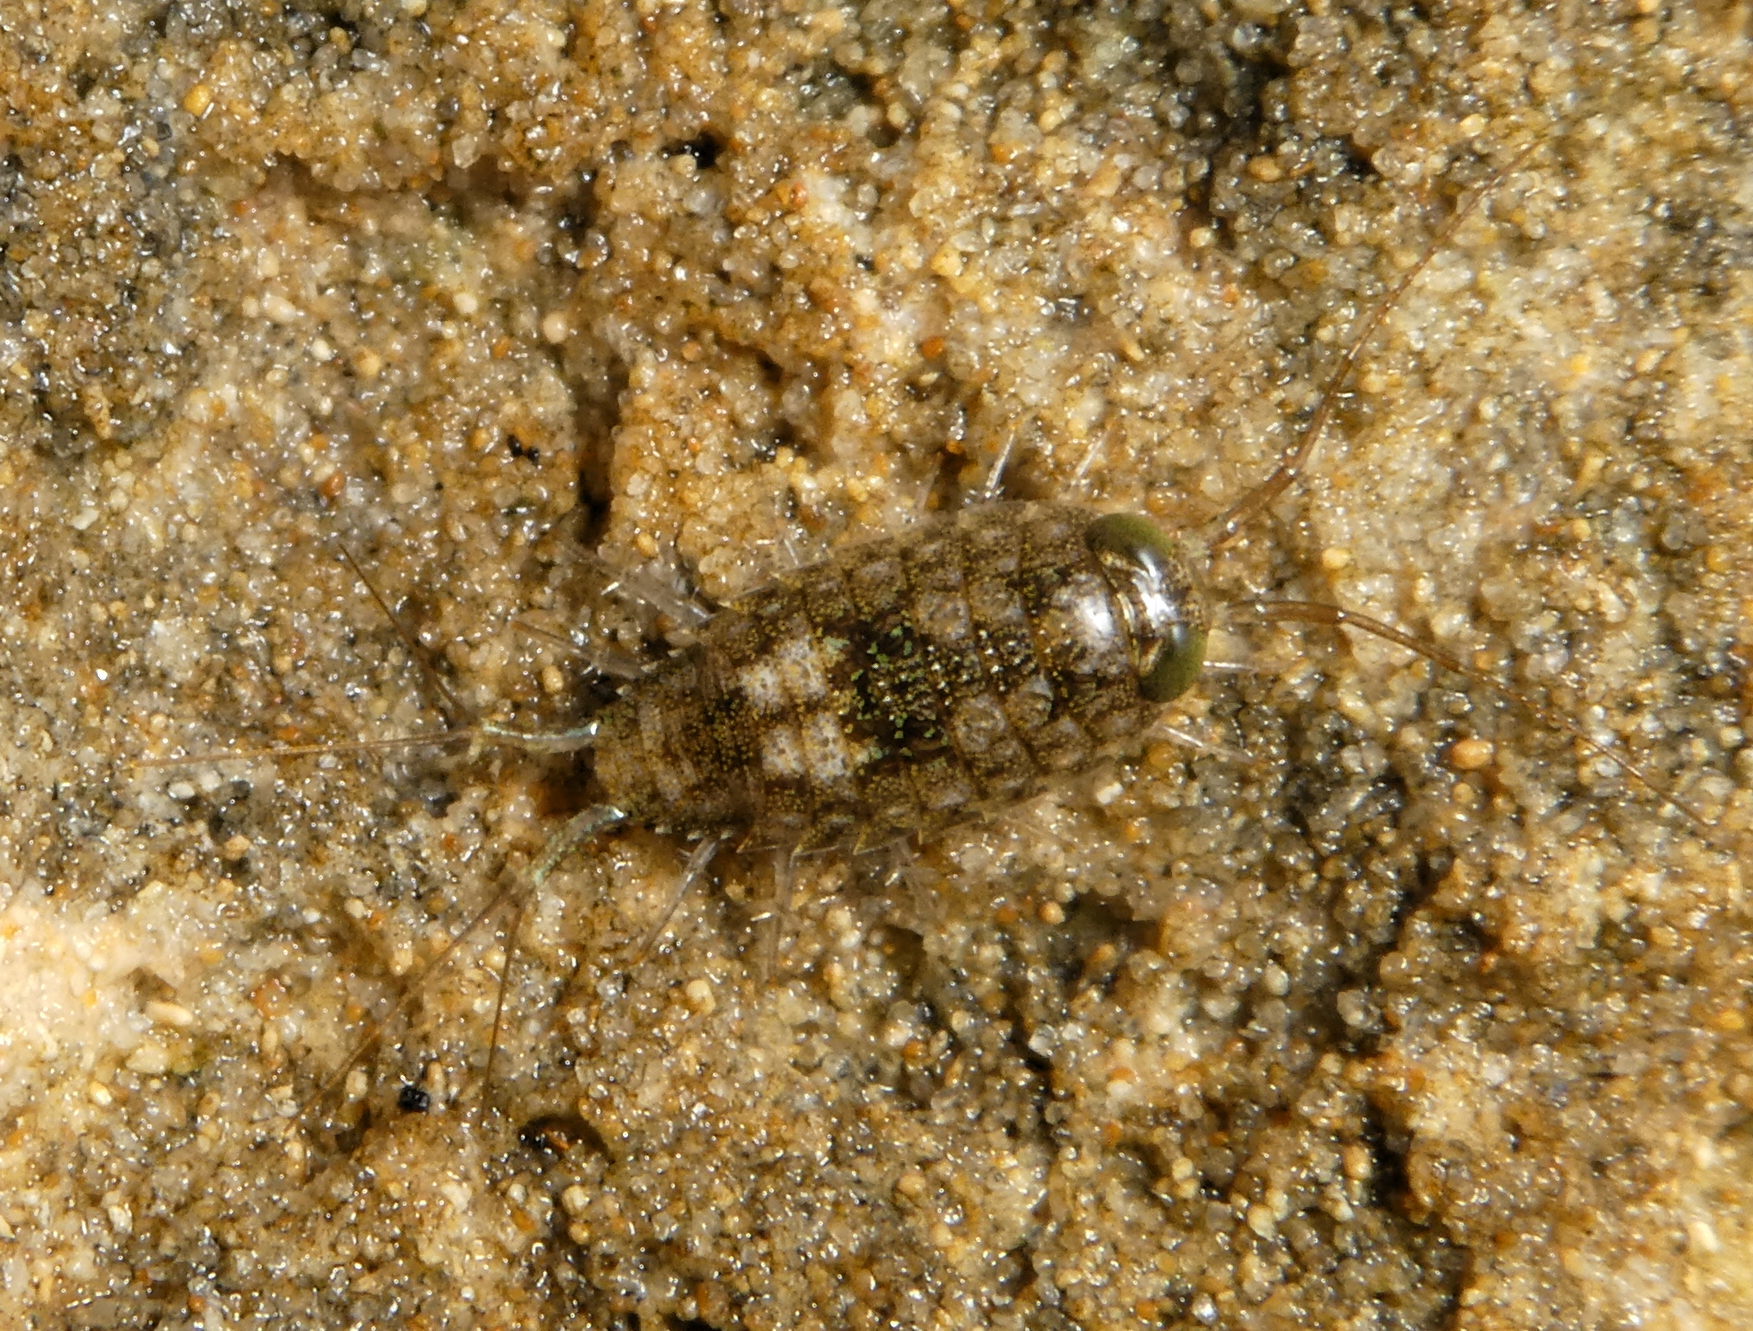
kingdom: Animalia
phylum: Arthropoda
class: Malacostraca
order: Isopoda
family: Ligiidae
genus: Ligia
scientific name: Ligia italica
